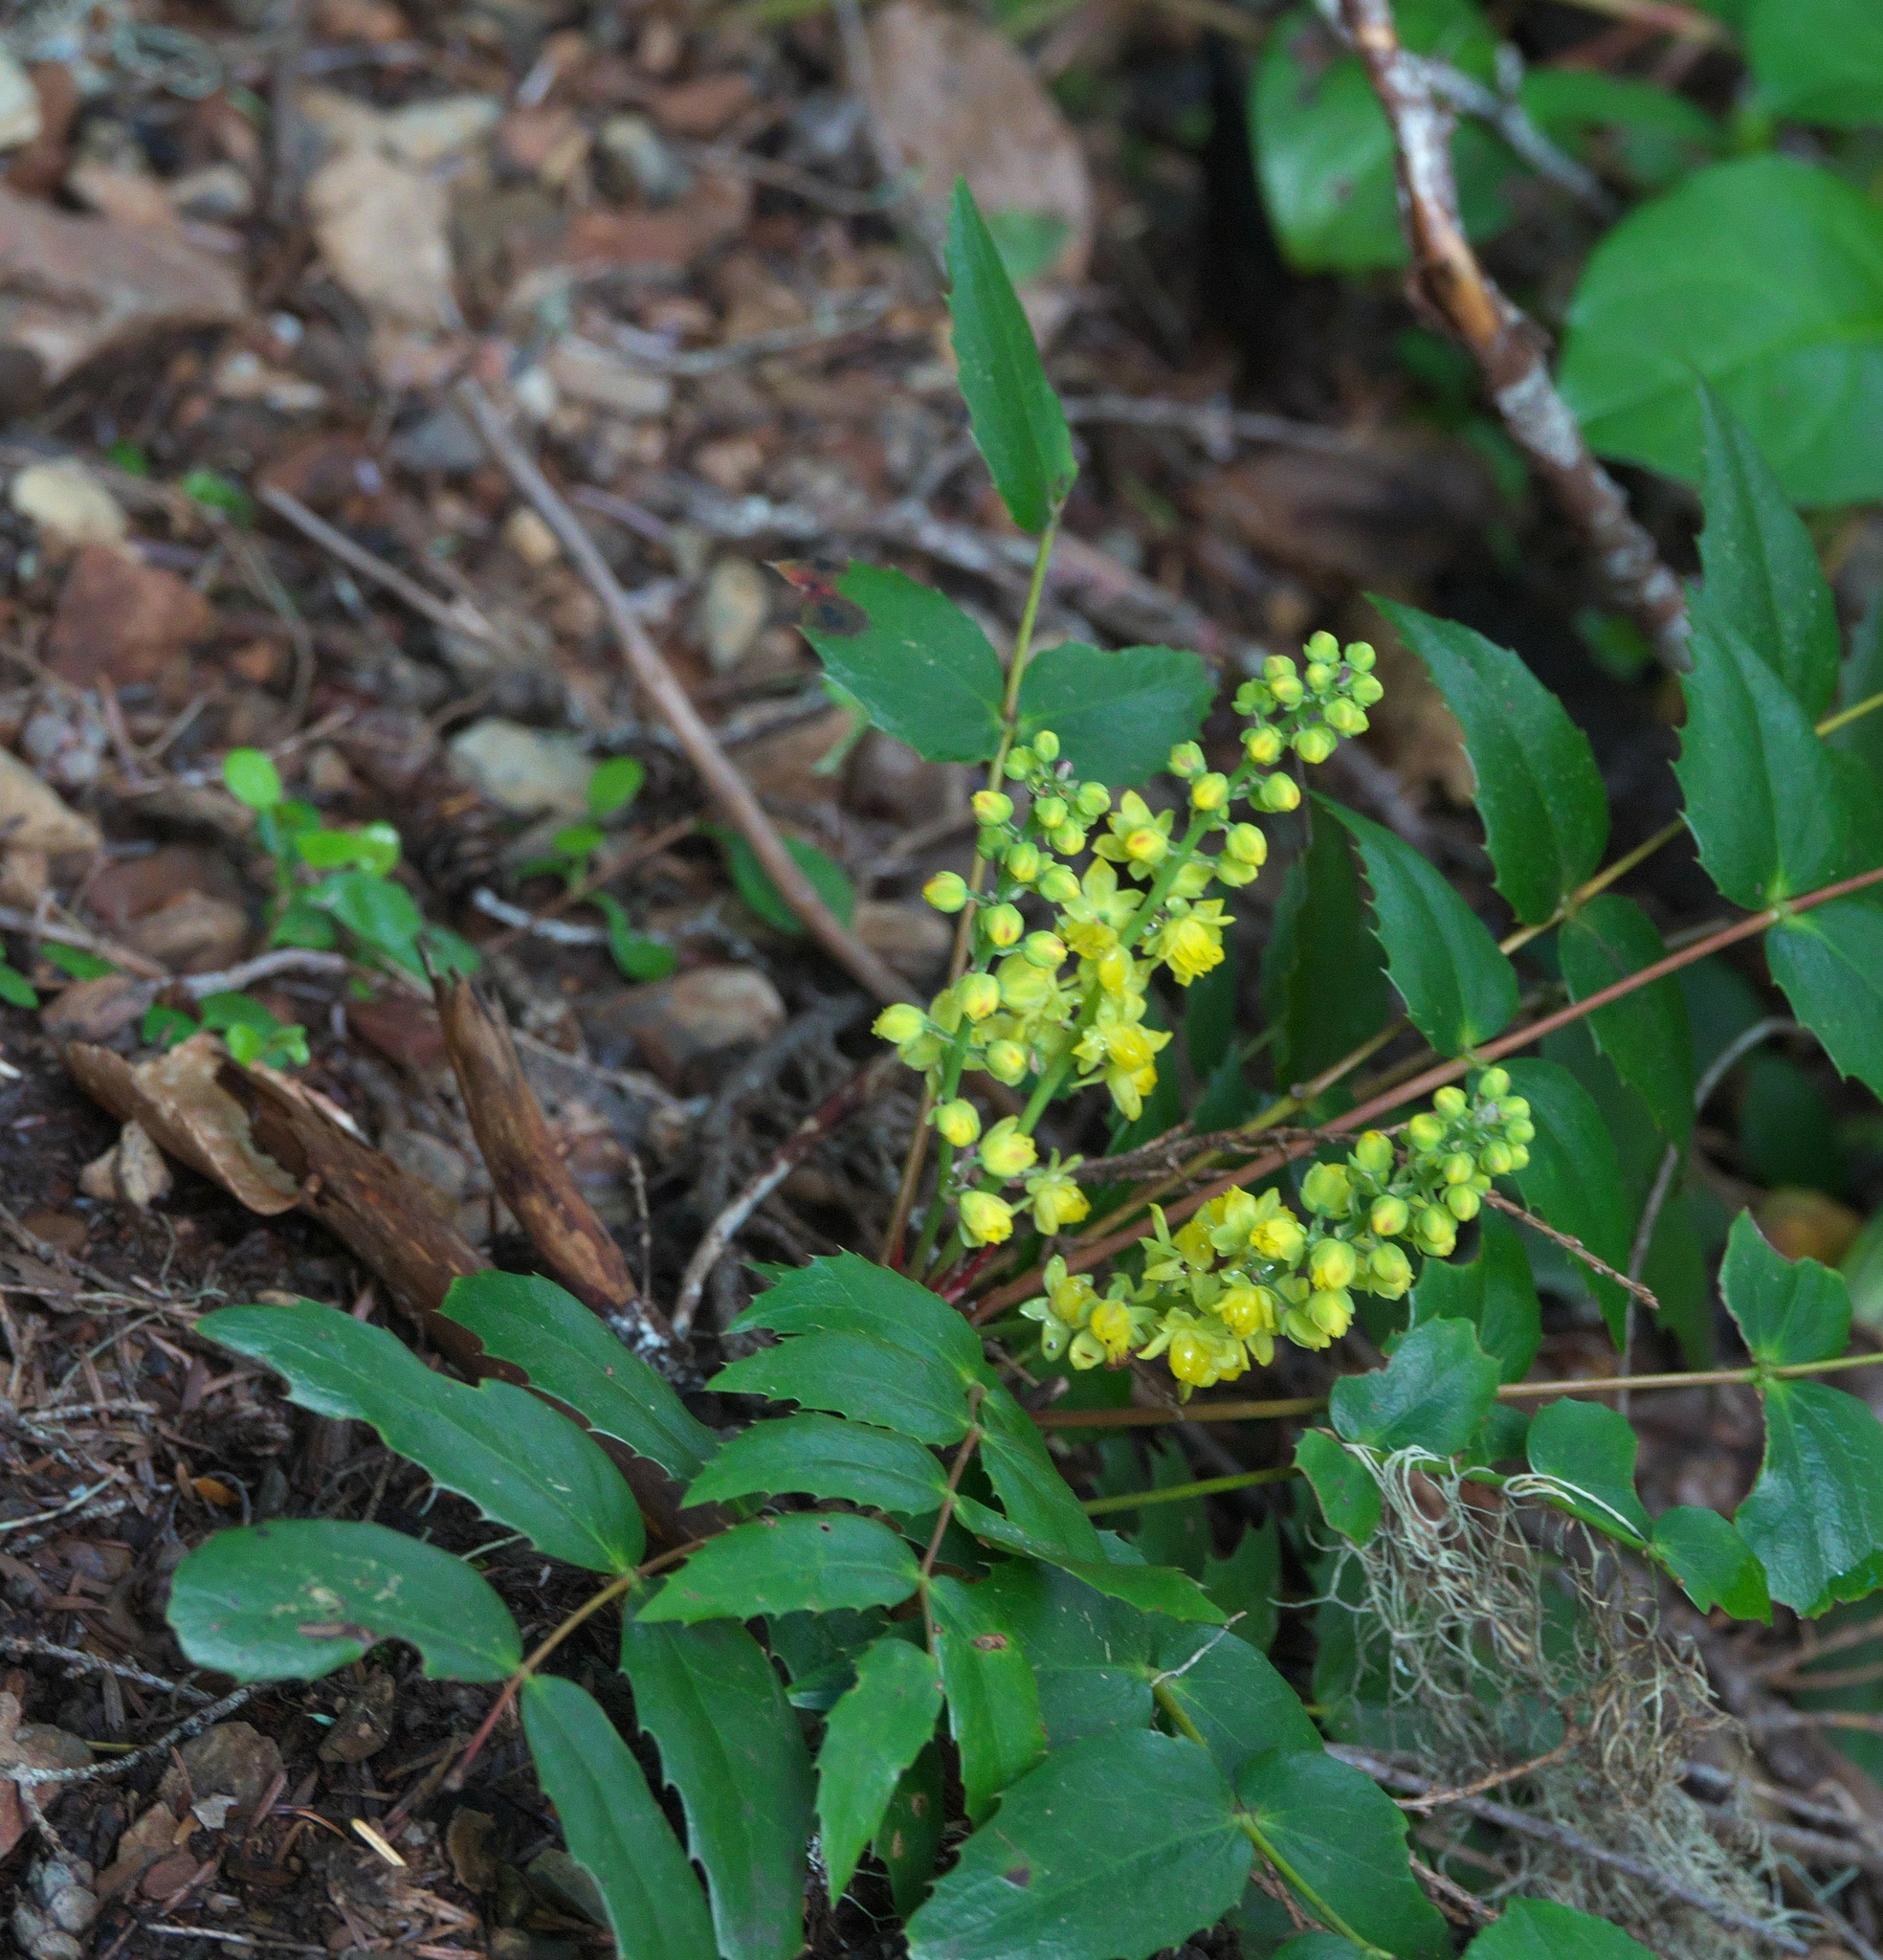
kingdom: Plantae
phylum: Tracheophyta
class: Magnoliopsida
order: Ranunculales
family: Berberidaceae
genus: Mahonia
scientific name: Mahonia nervosa
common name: Cascade oregon-grape
